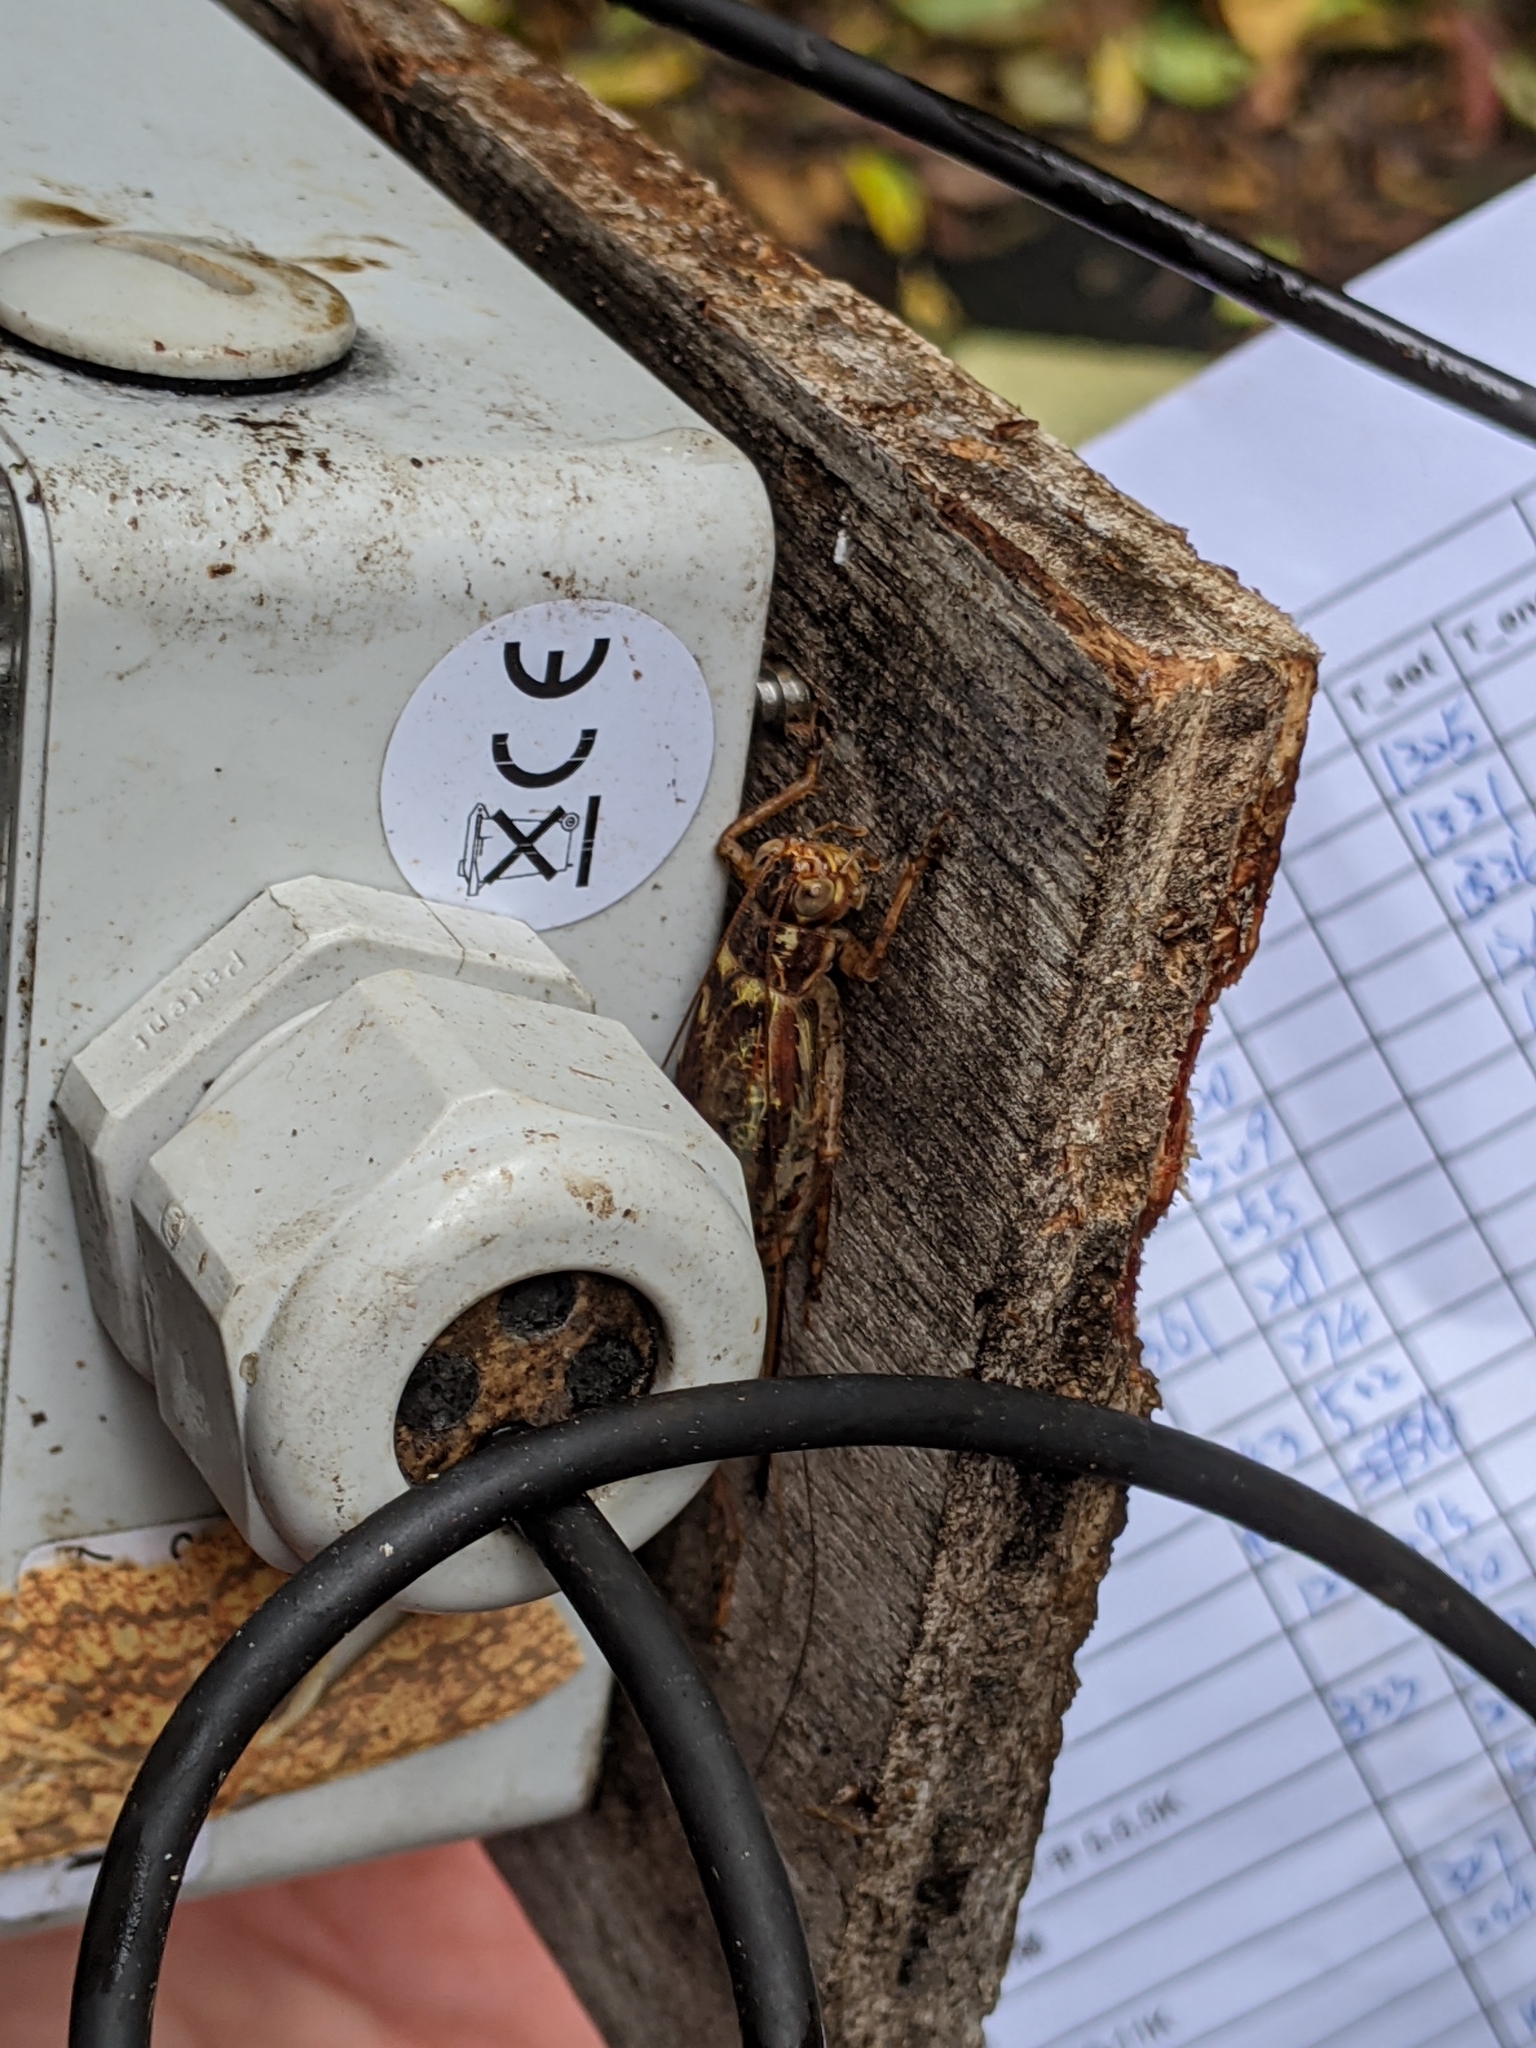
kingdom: Animalia
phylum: Arthropoda
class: Insecta
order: Orthoptera
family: Gryllidae
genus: Cardiodactylus
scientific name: Cardiodactylus guttulus
